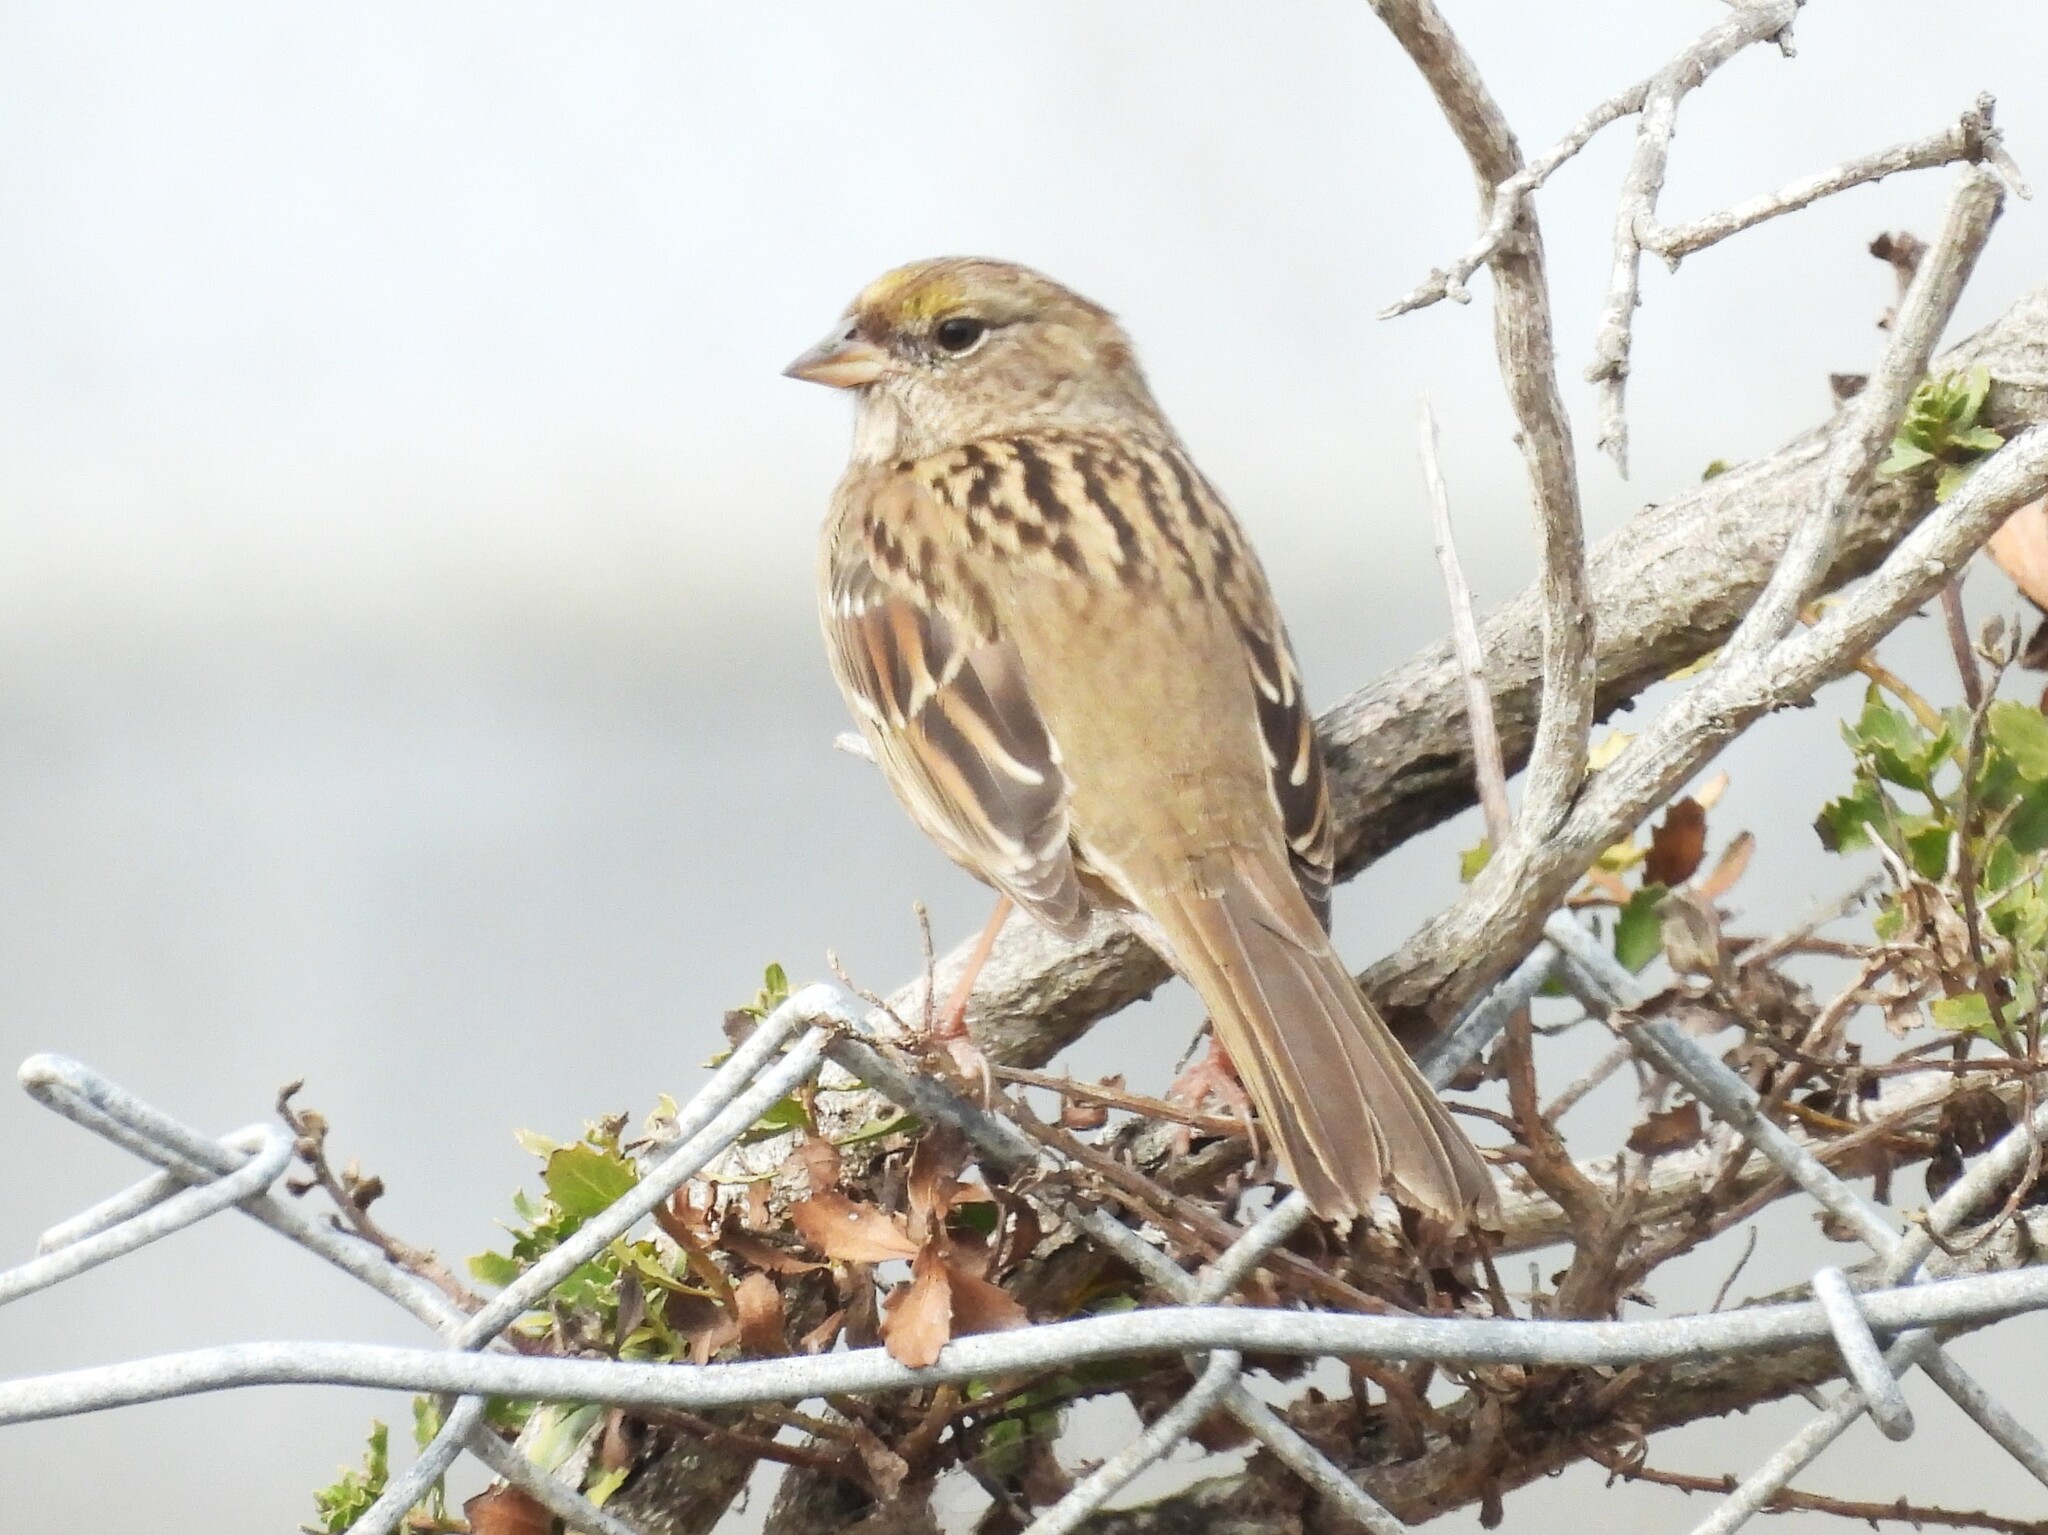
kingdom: Animalia
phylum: Chordata
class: Aves
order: Passeriformes
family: Passerellidae
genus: Zonotrichia
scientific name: Zonotrichia atricapilla
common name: Golden-crowned sparrow
